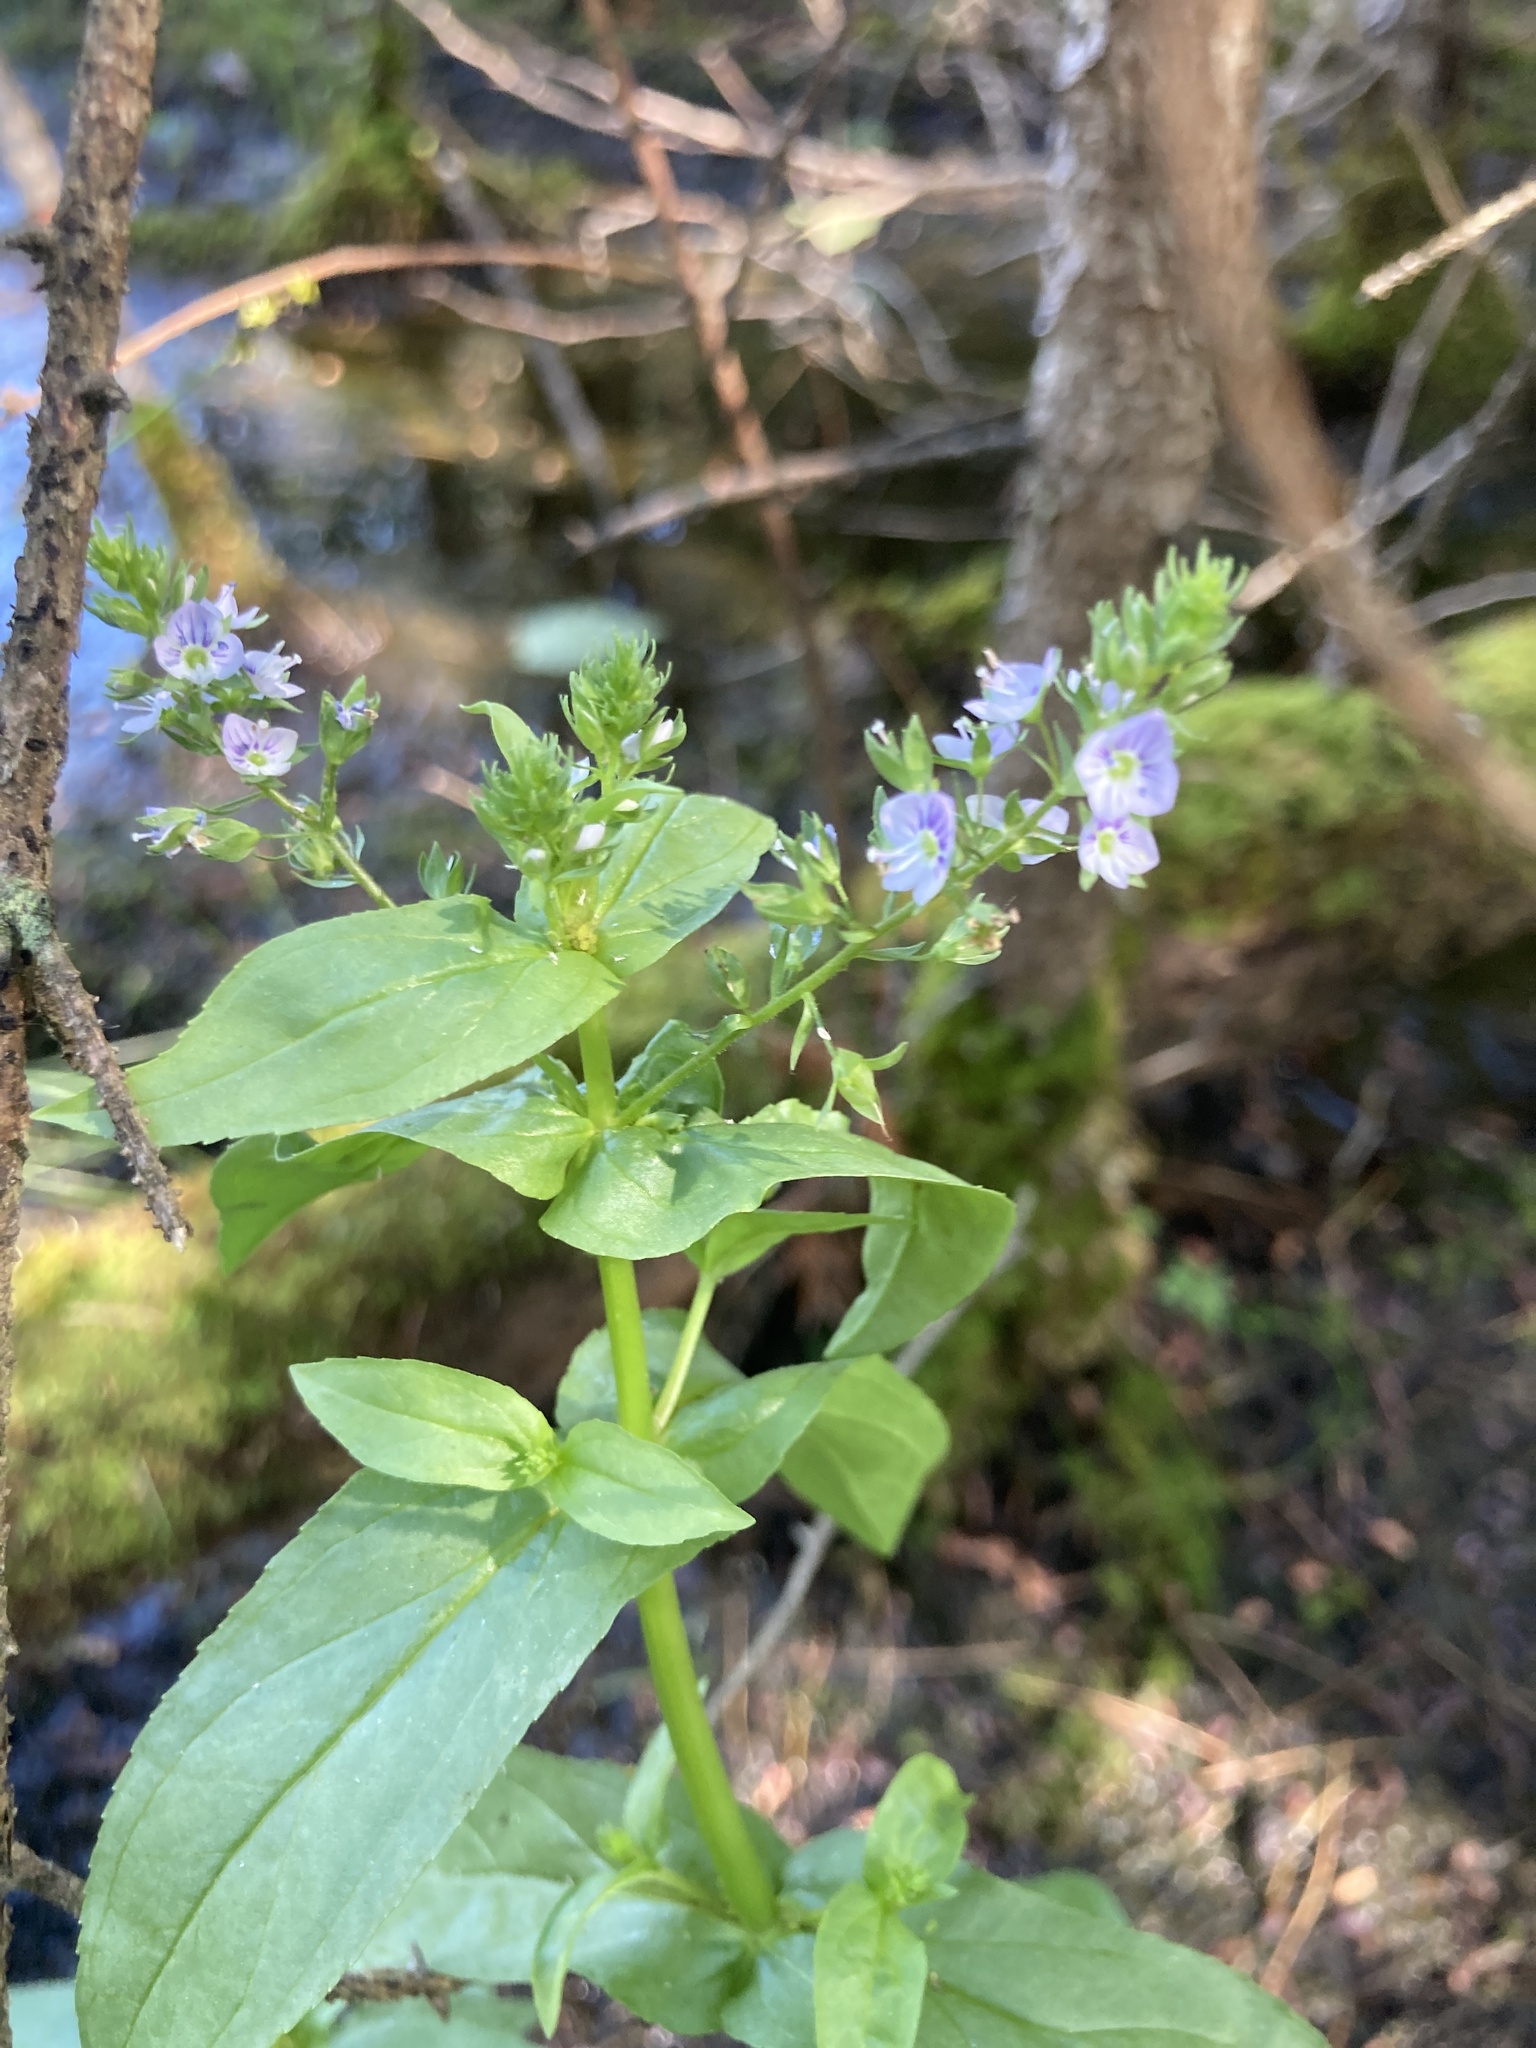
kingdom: Plantae
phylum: Tracheophyta
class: Magnoliopsida
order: Lamiales
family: Plantaginaceae
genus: Veronica
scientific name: Veronica anagallis-aquatica
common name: Water speedwell
